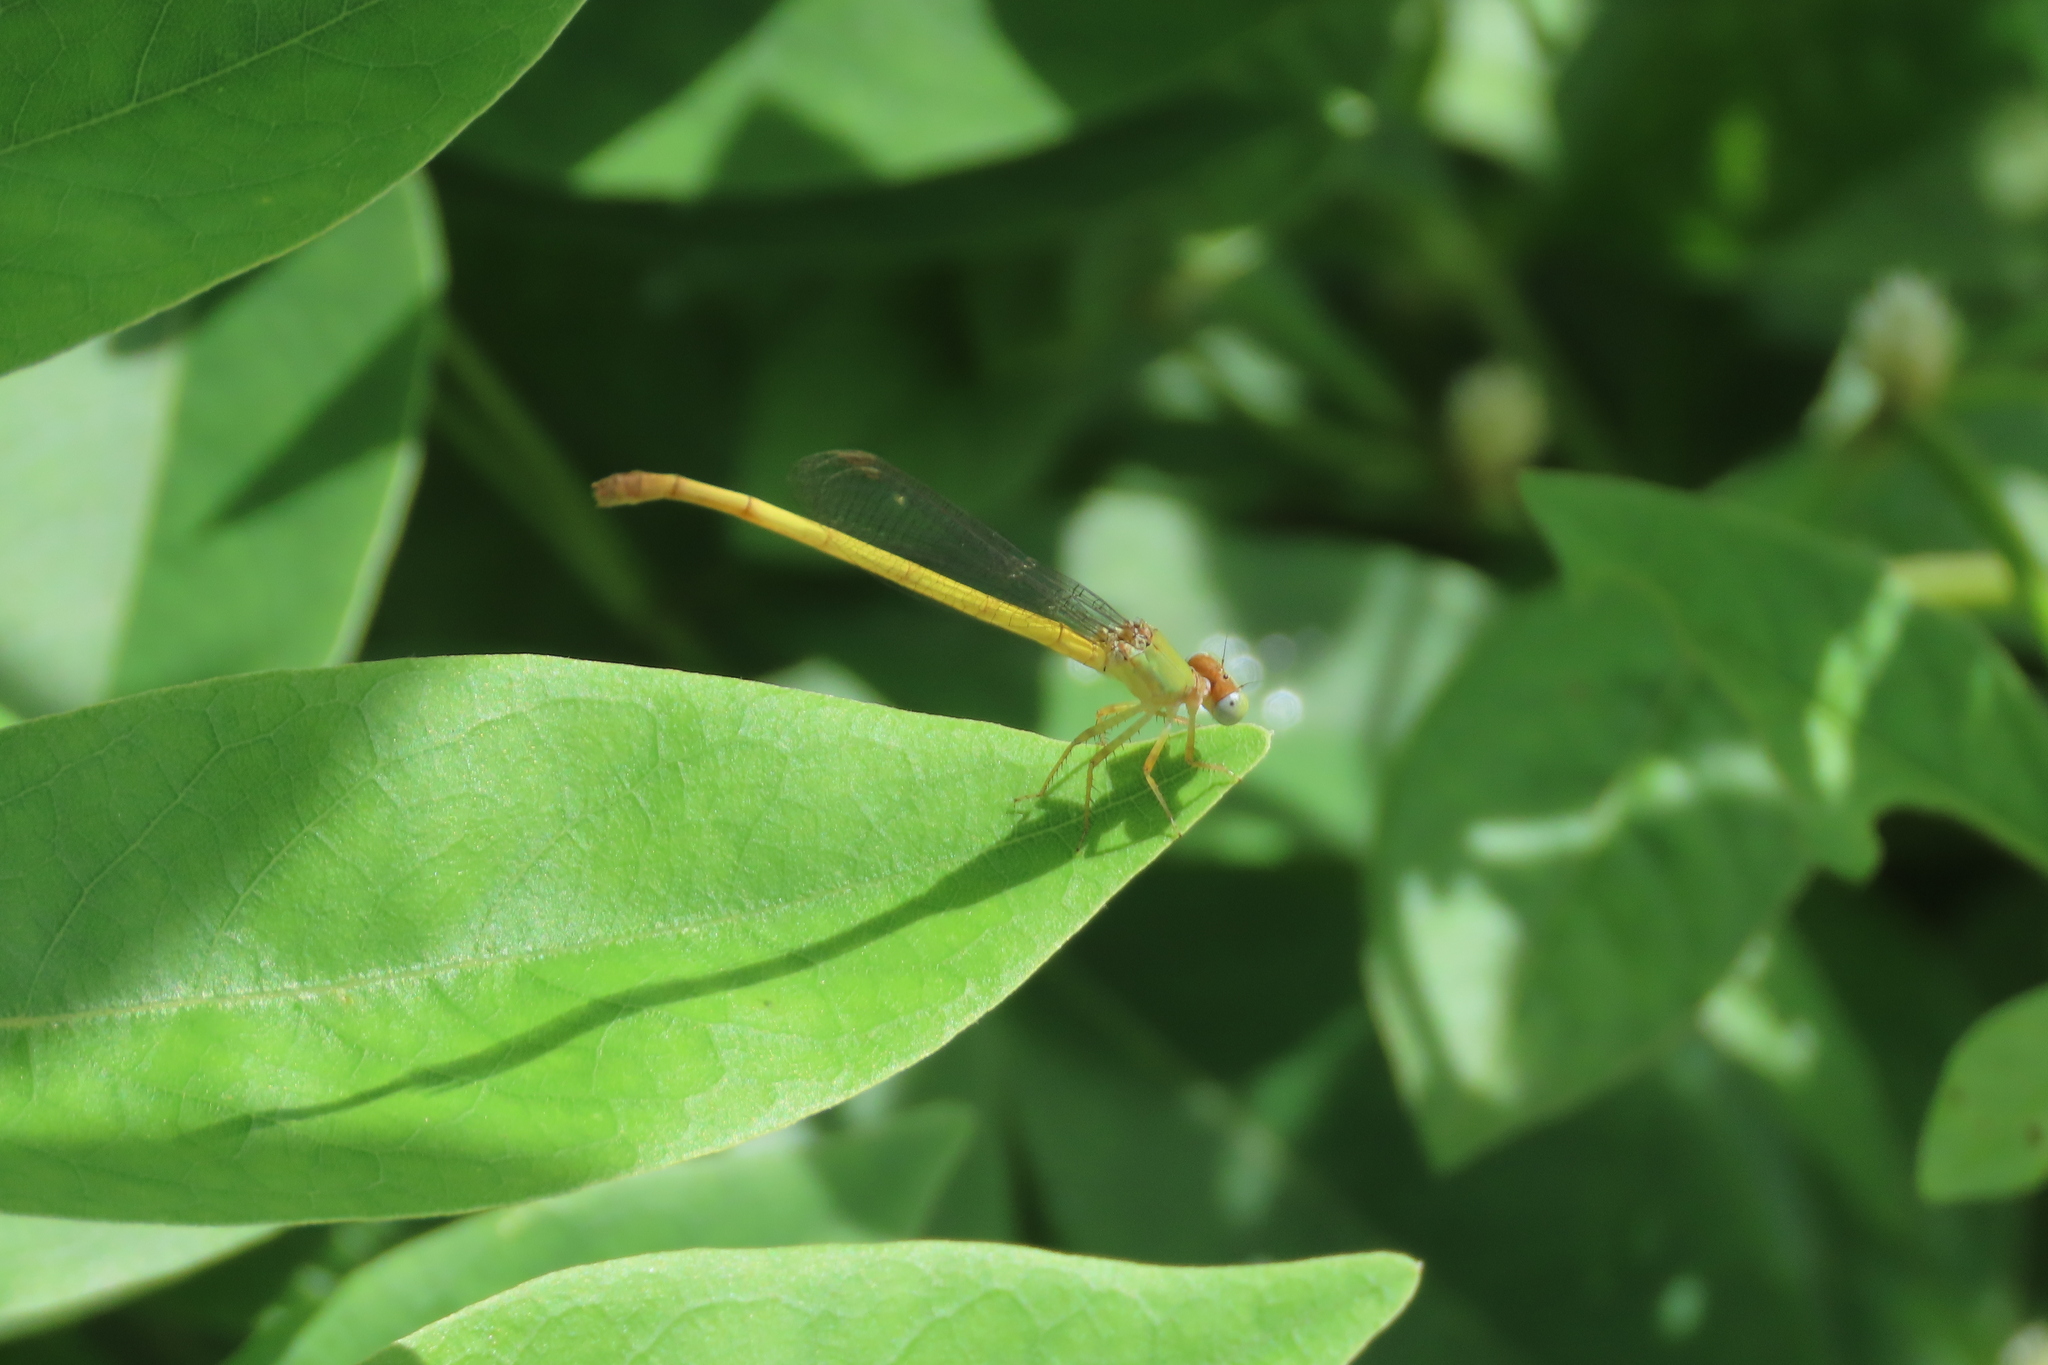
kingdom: Animalia
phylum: Arthropoda
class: Insecta
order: Odonata
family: Coenagrionidae
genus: Ceriagrion
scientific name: Ceriagrion coromandelianum
